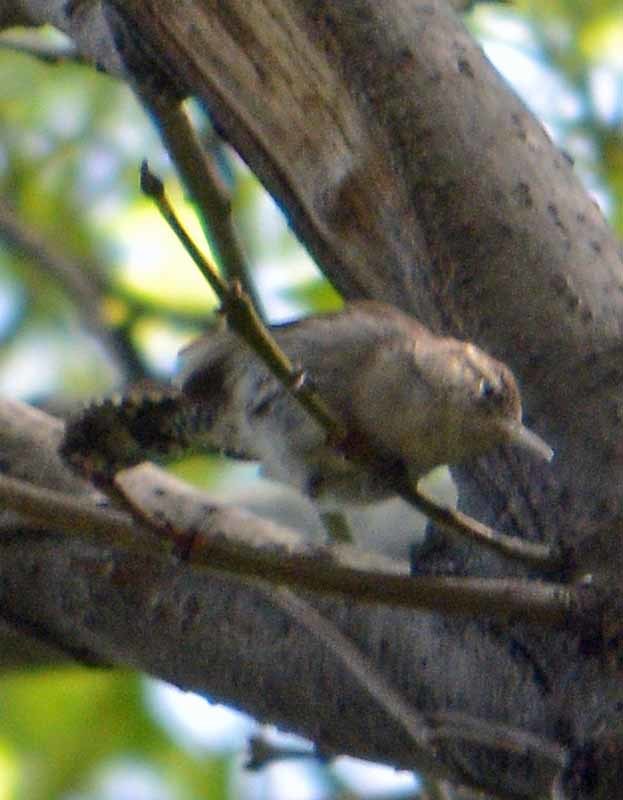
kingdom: Animalia
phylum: Chordata
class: Aves
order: Passeriformes
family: Troglodytidae
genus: Thryomanes
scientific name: Thryomanes bewickii
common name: Bewick's wren
